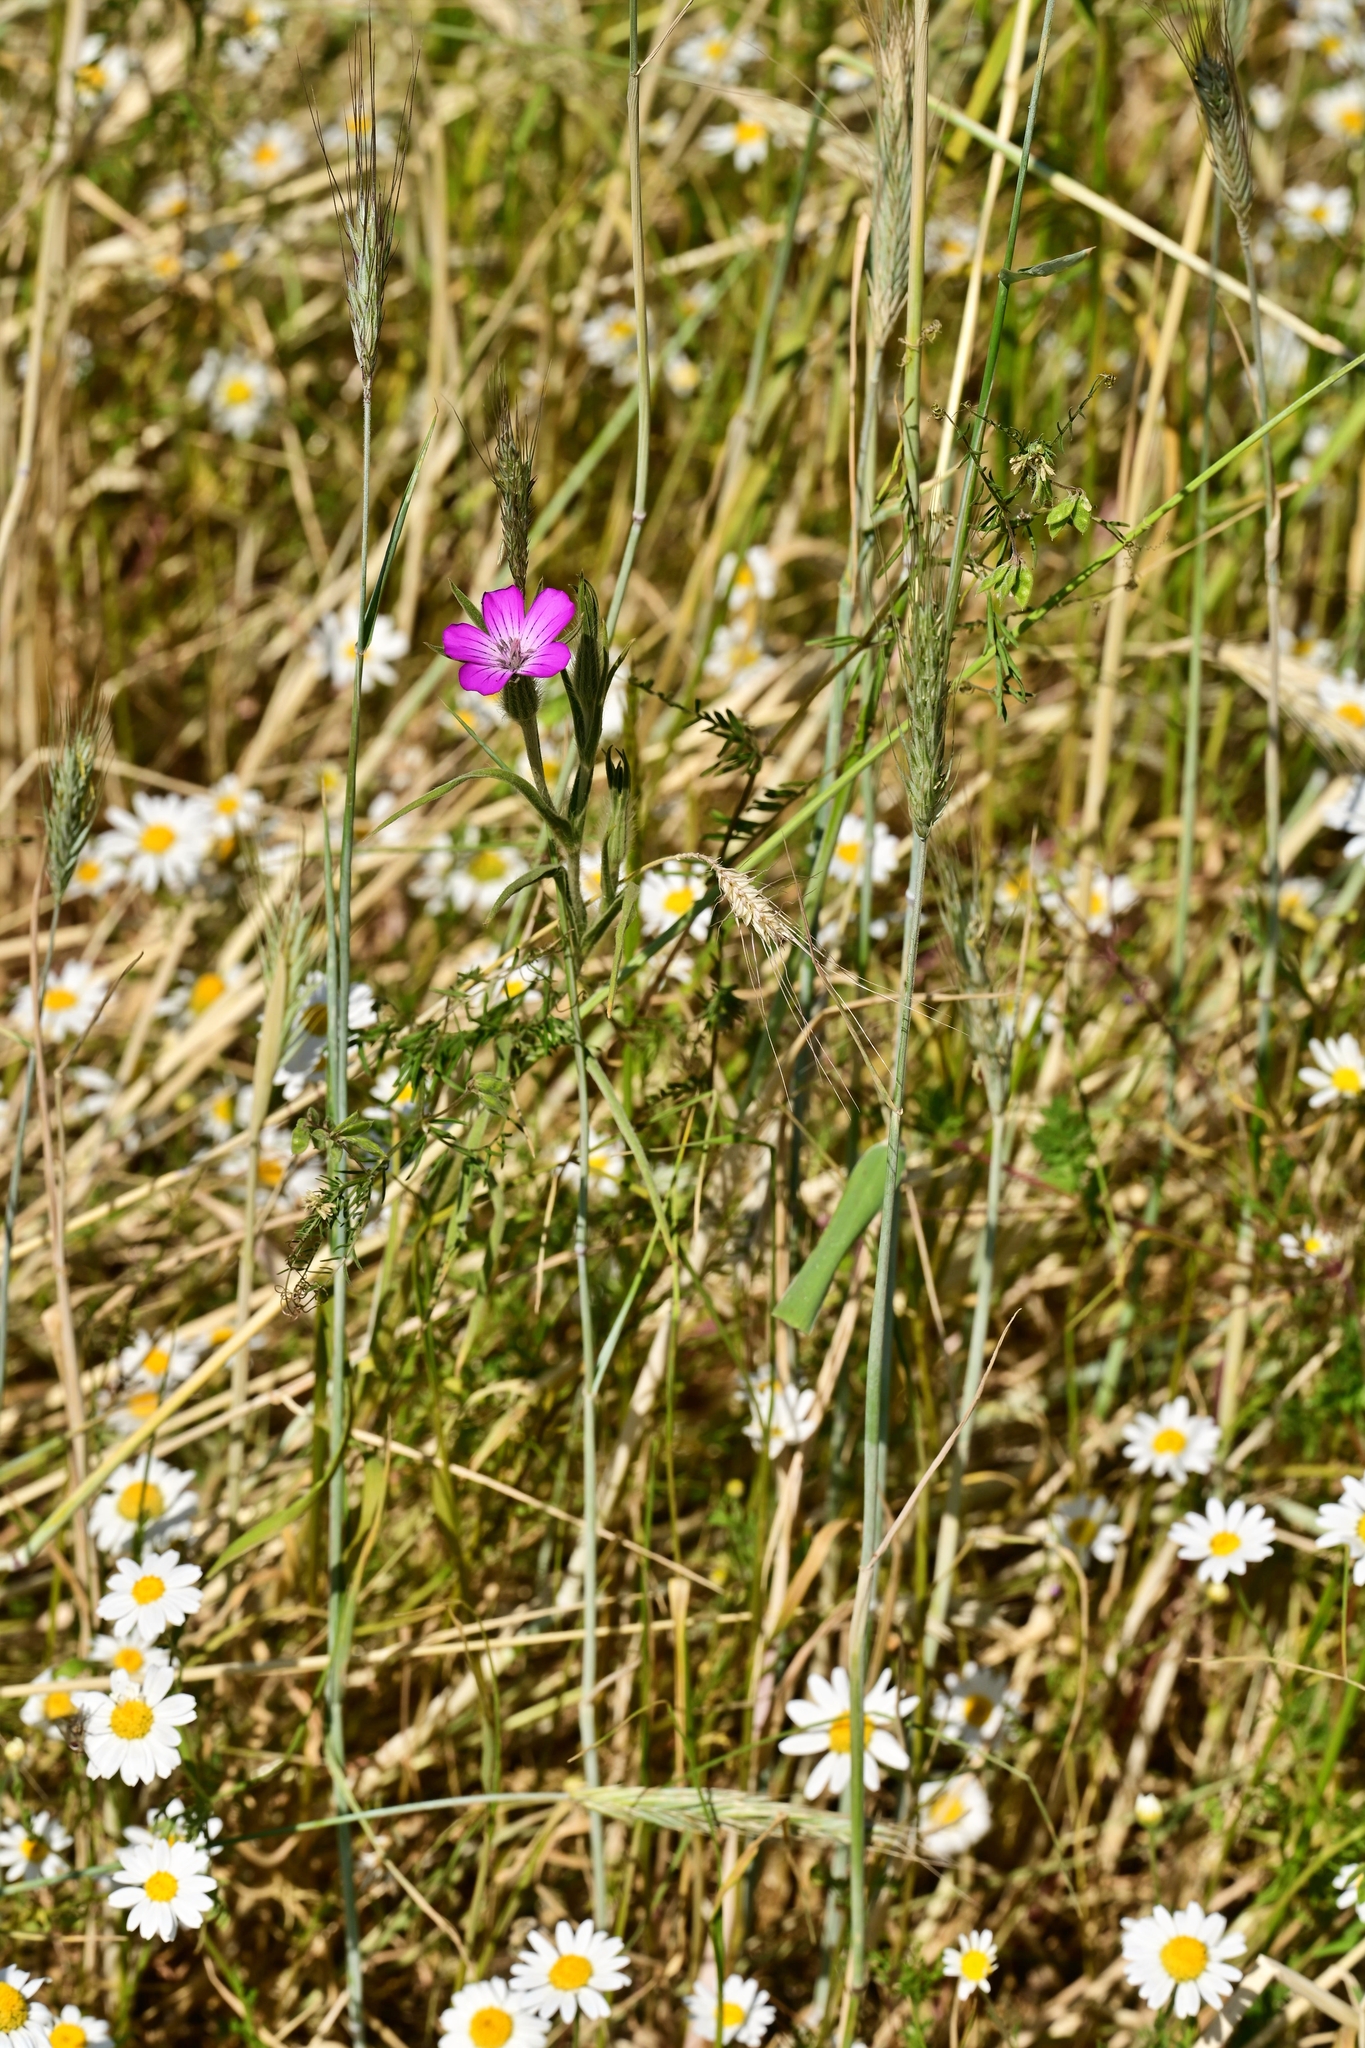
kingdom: Plantae
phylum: Tracheophyta
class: Magnoliopsida
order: Caryophyllales
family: Caryophyllaceae
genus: Agrostemma
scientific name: Agrostemma githago
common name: Common corncockle
